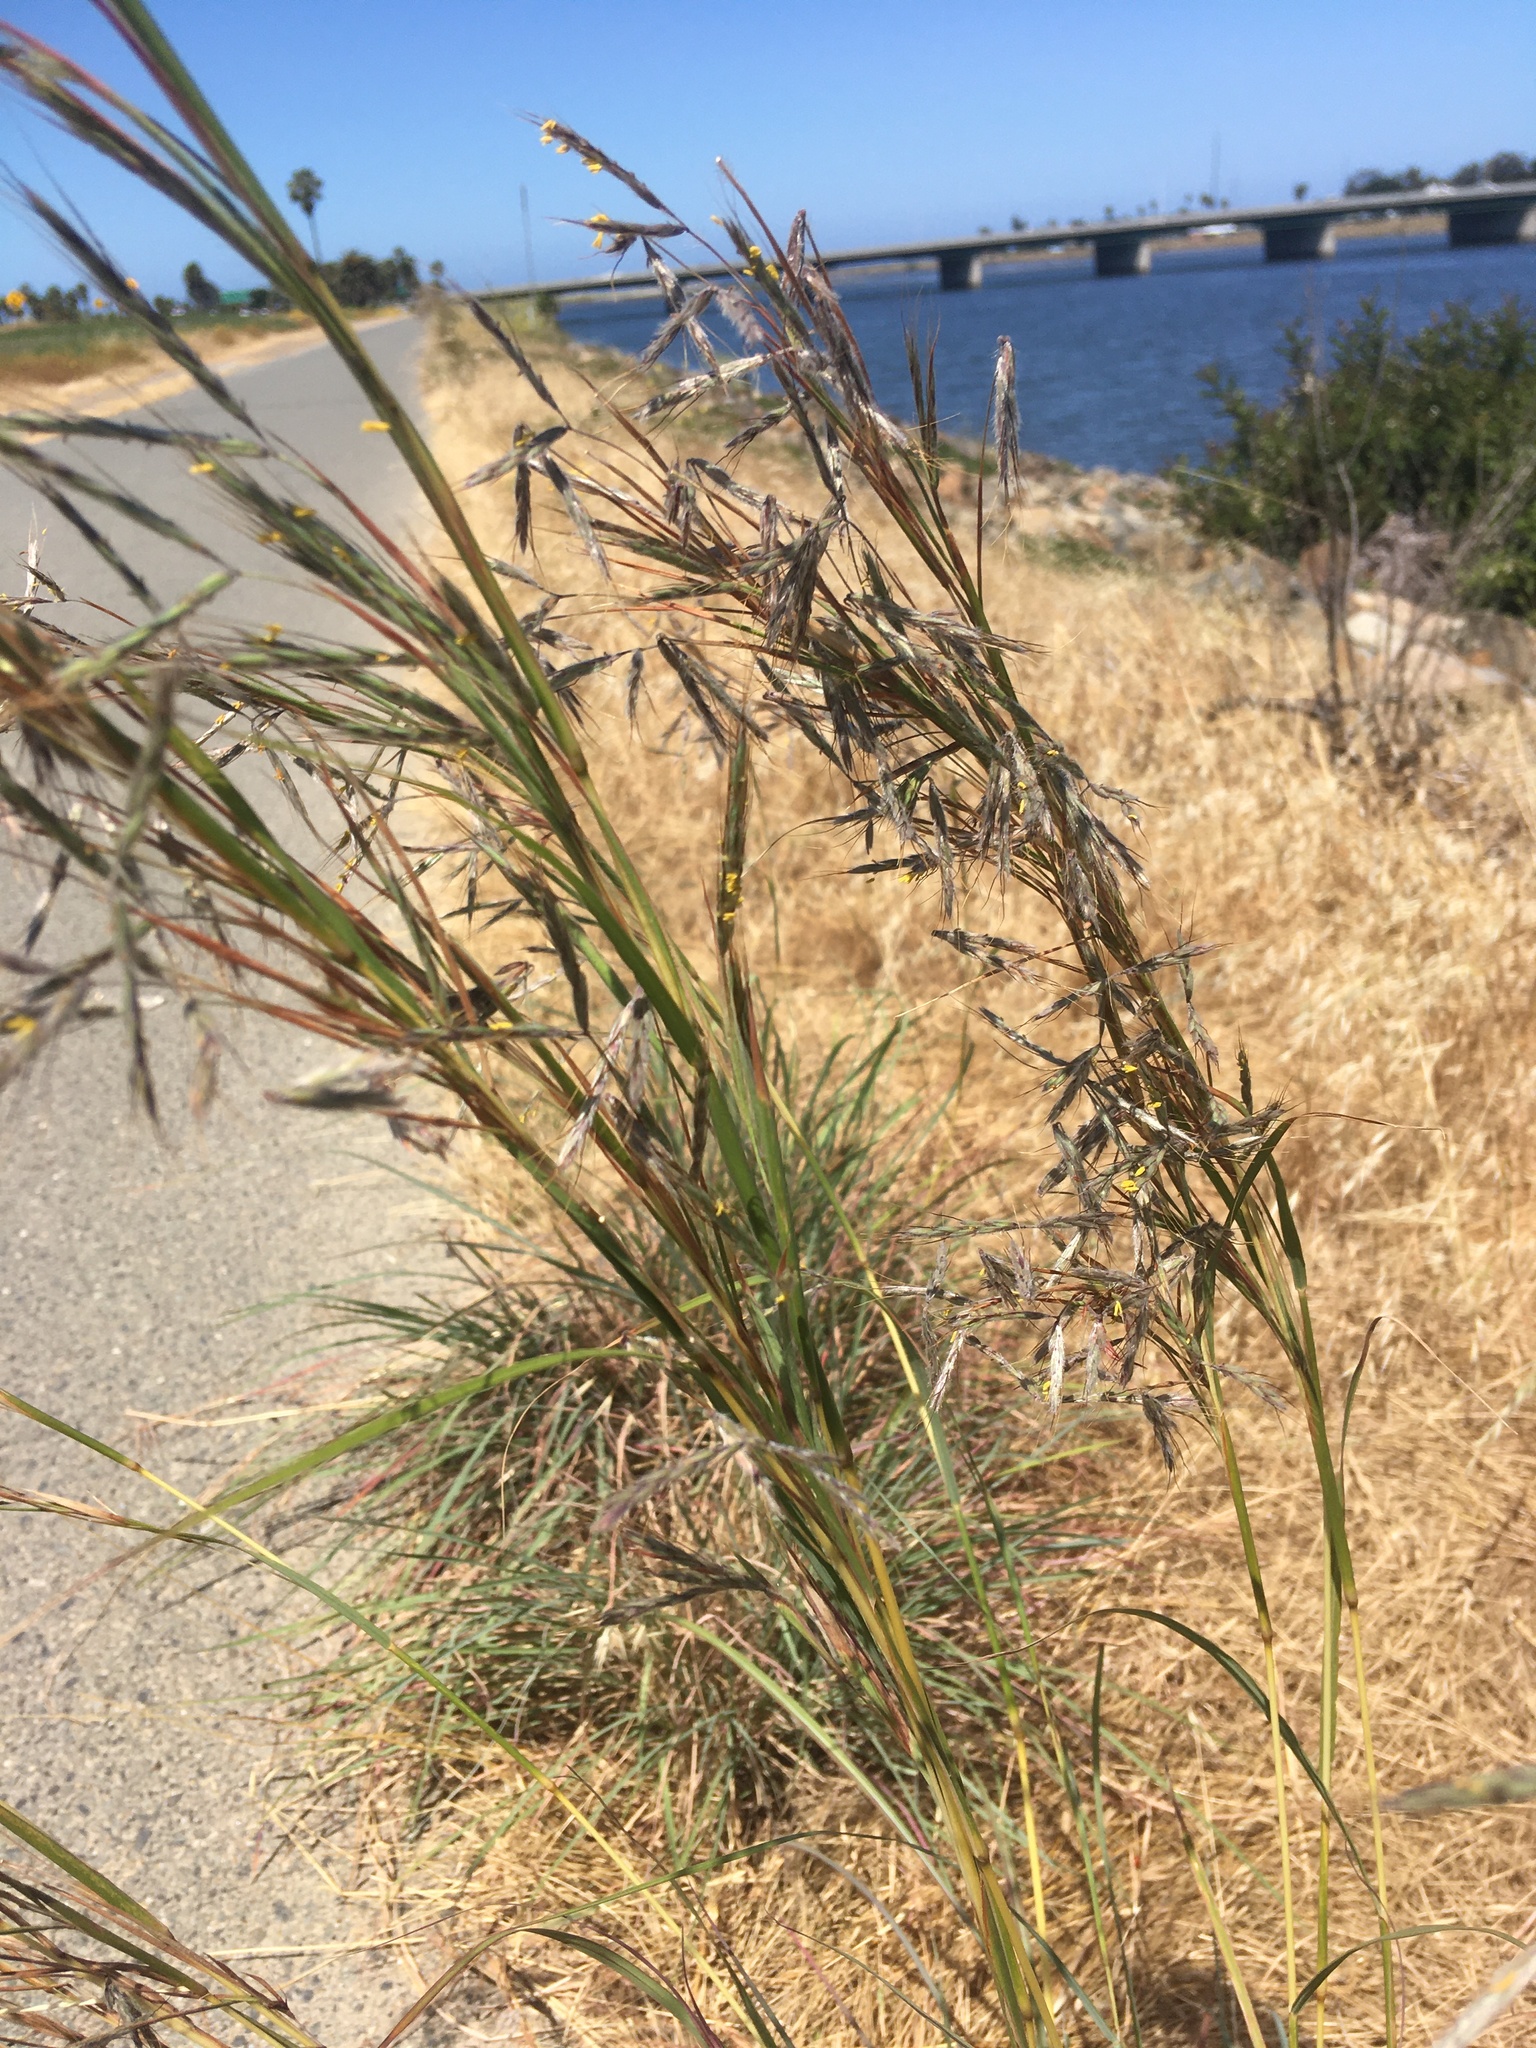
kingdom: Plantae
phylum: Tracheophyta
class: Liliopsida
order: Poales
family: Poaceae
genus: Hyparrhenia
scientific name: Hyparrhenia hirta
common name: Thatching grass
